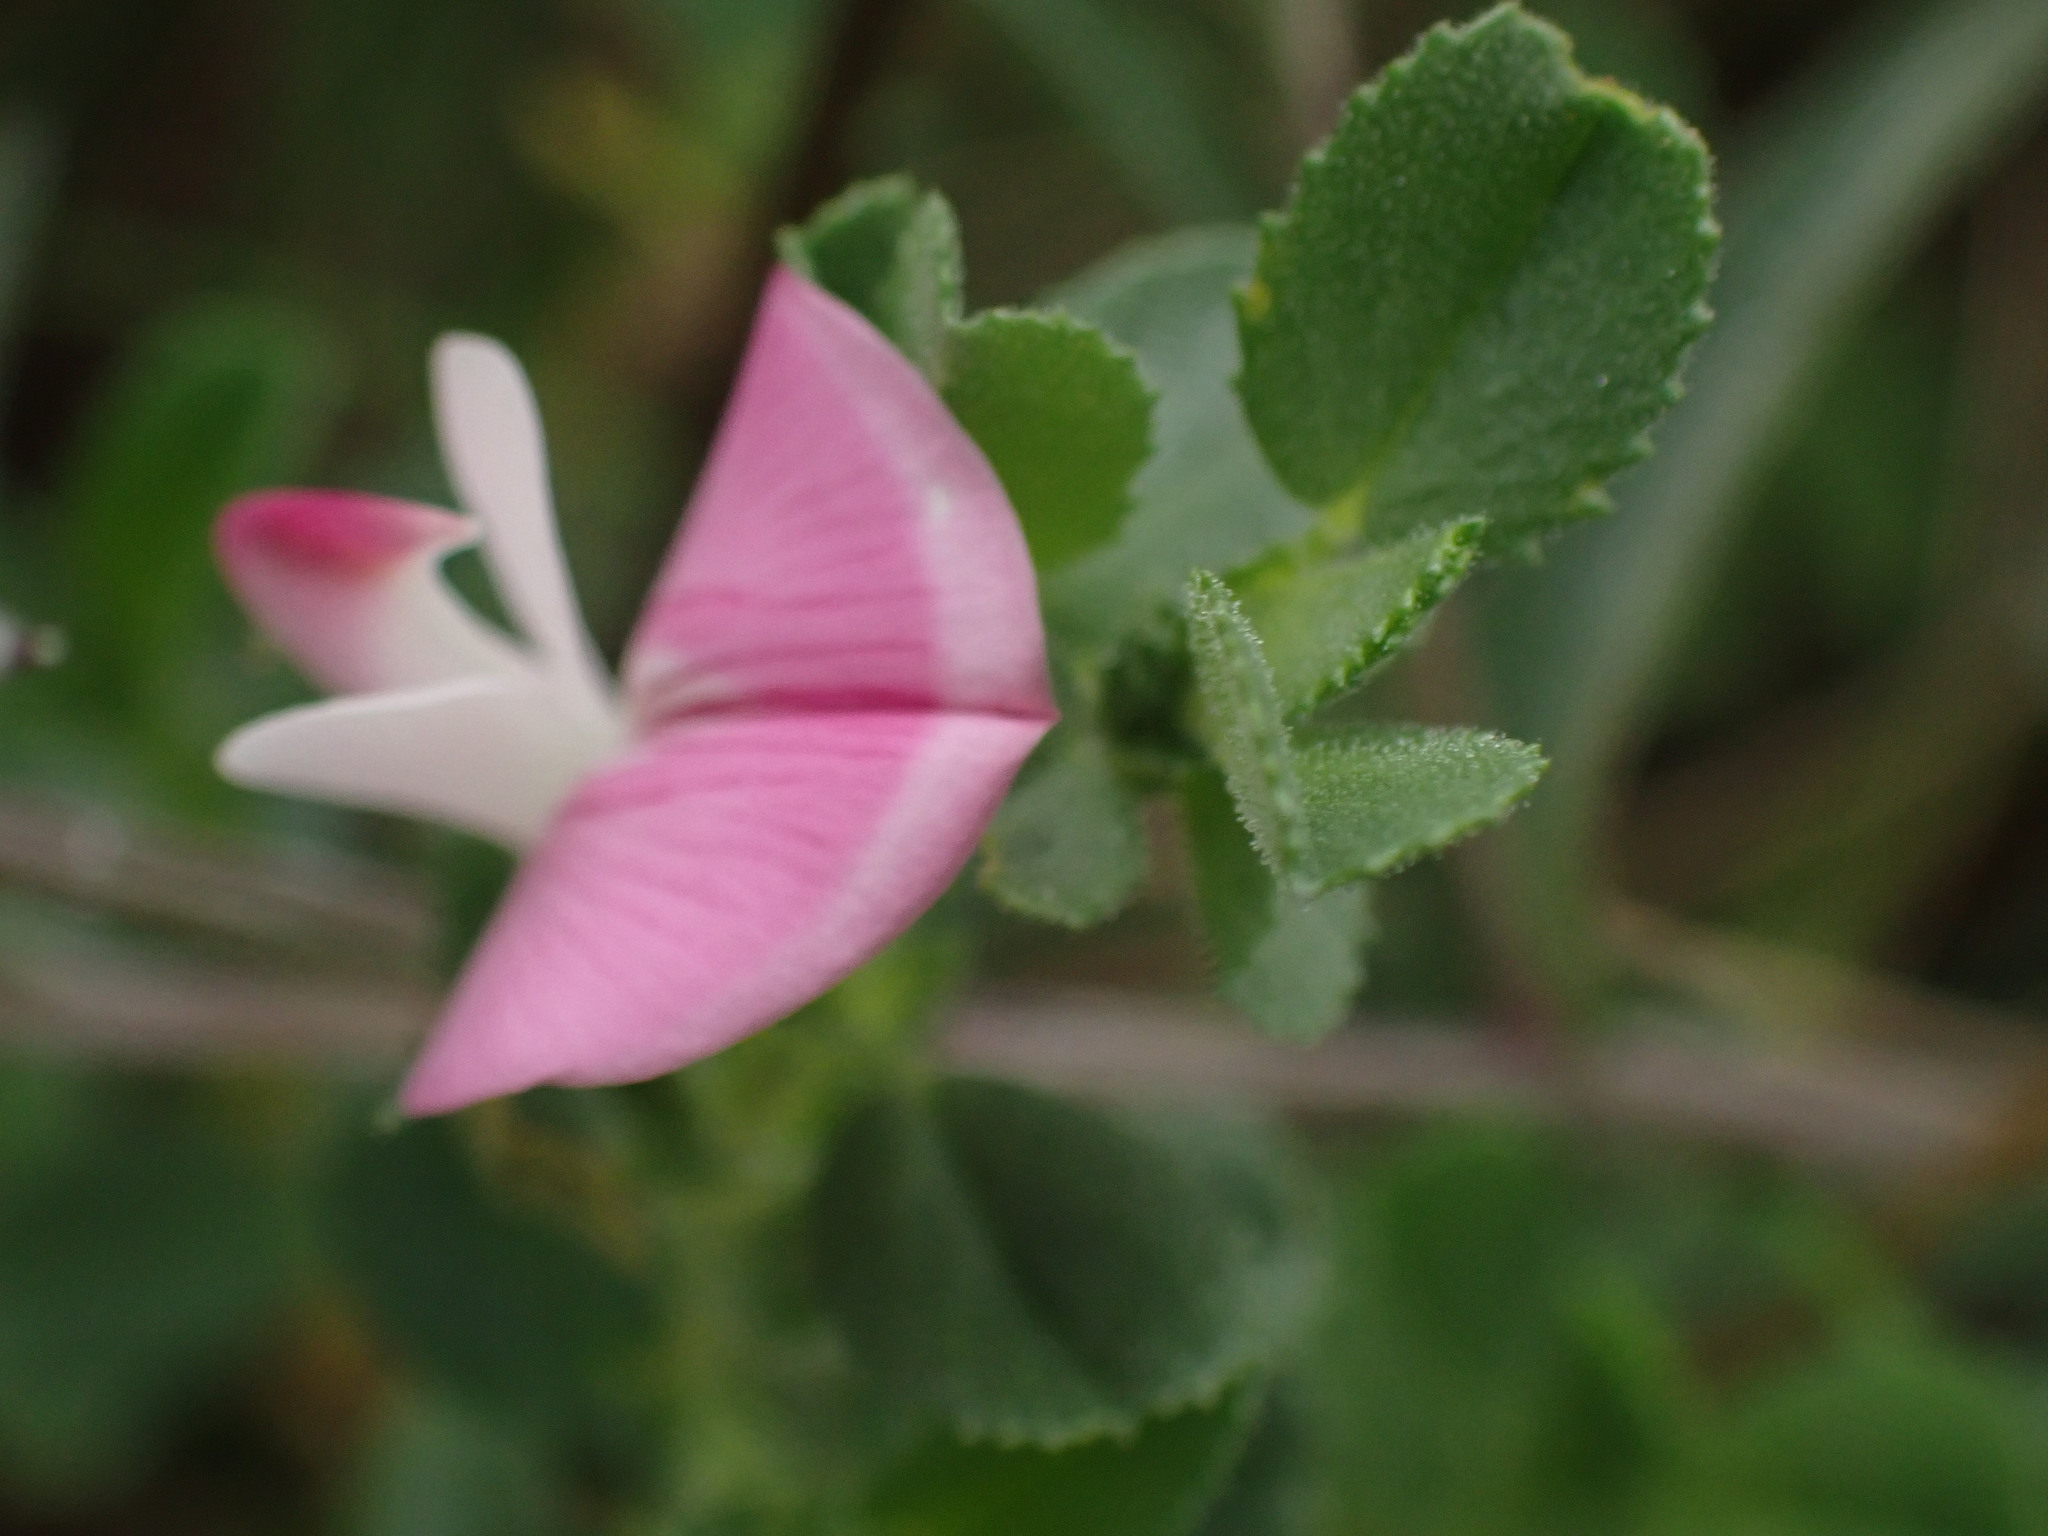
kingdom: Plantae
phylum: Tracheophyta
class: Magnoliopsida
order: Fabales
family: Fabaceae
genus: Ononis
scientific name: Ononis spinosa
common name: Spiny restharrow
